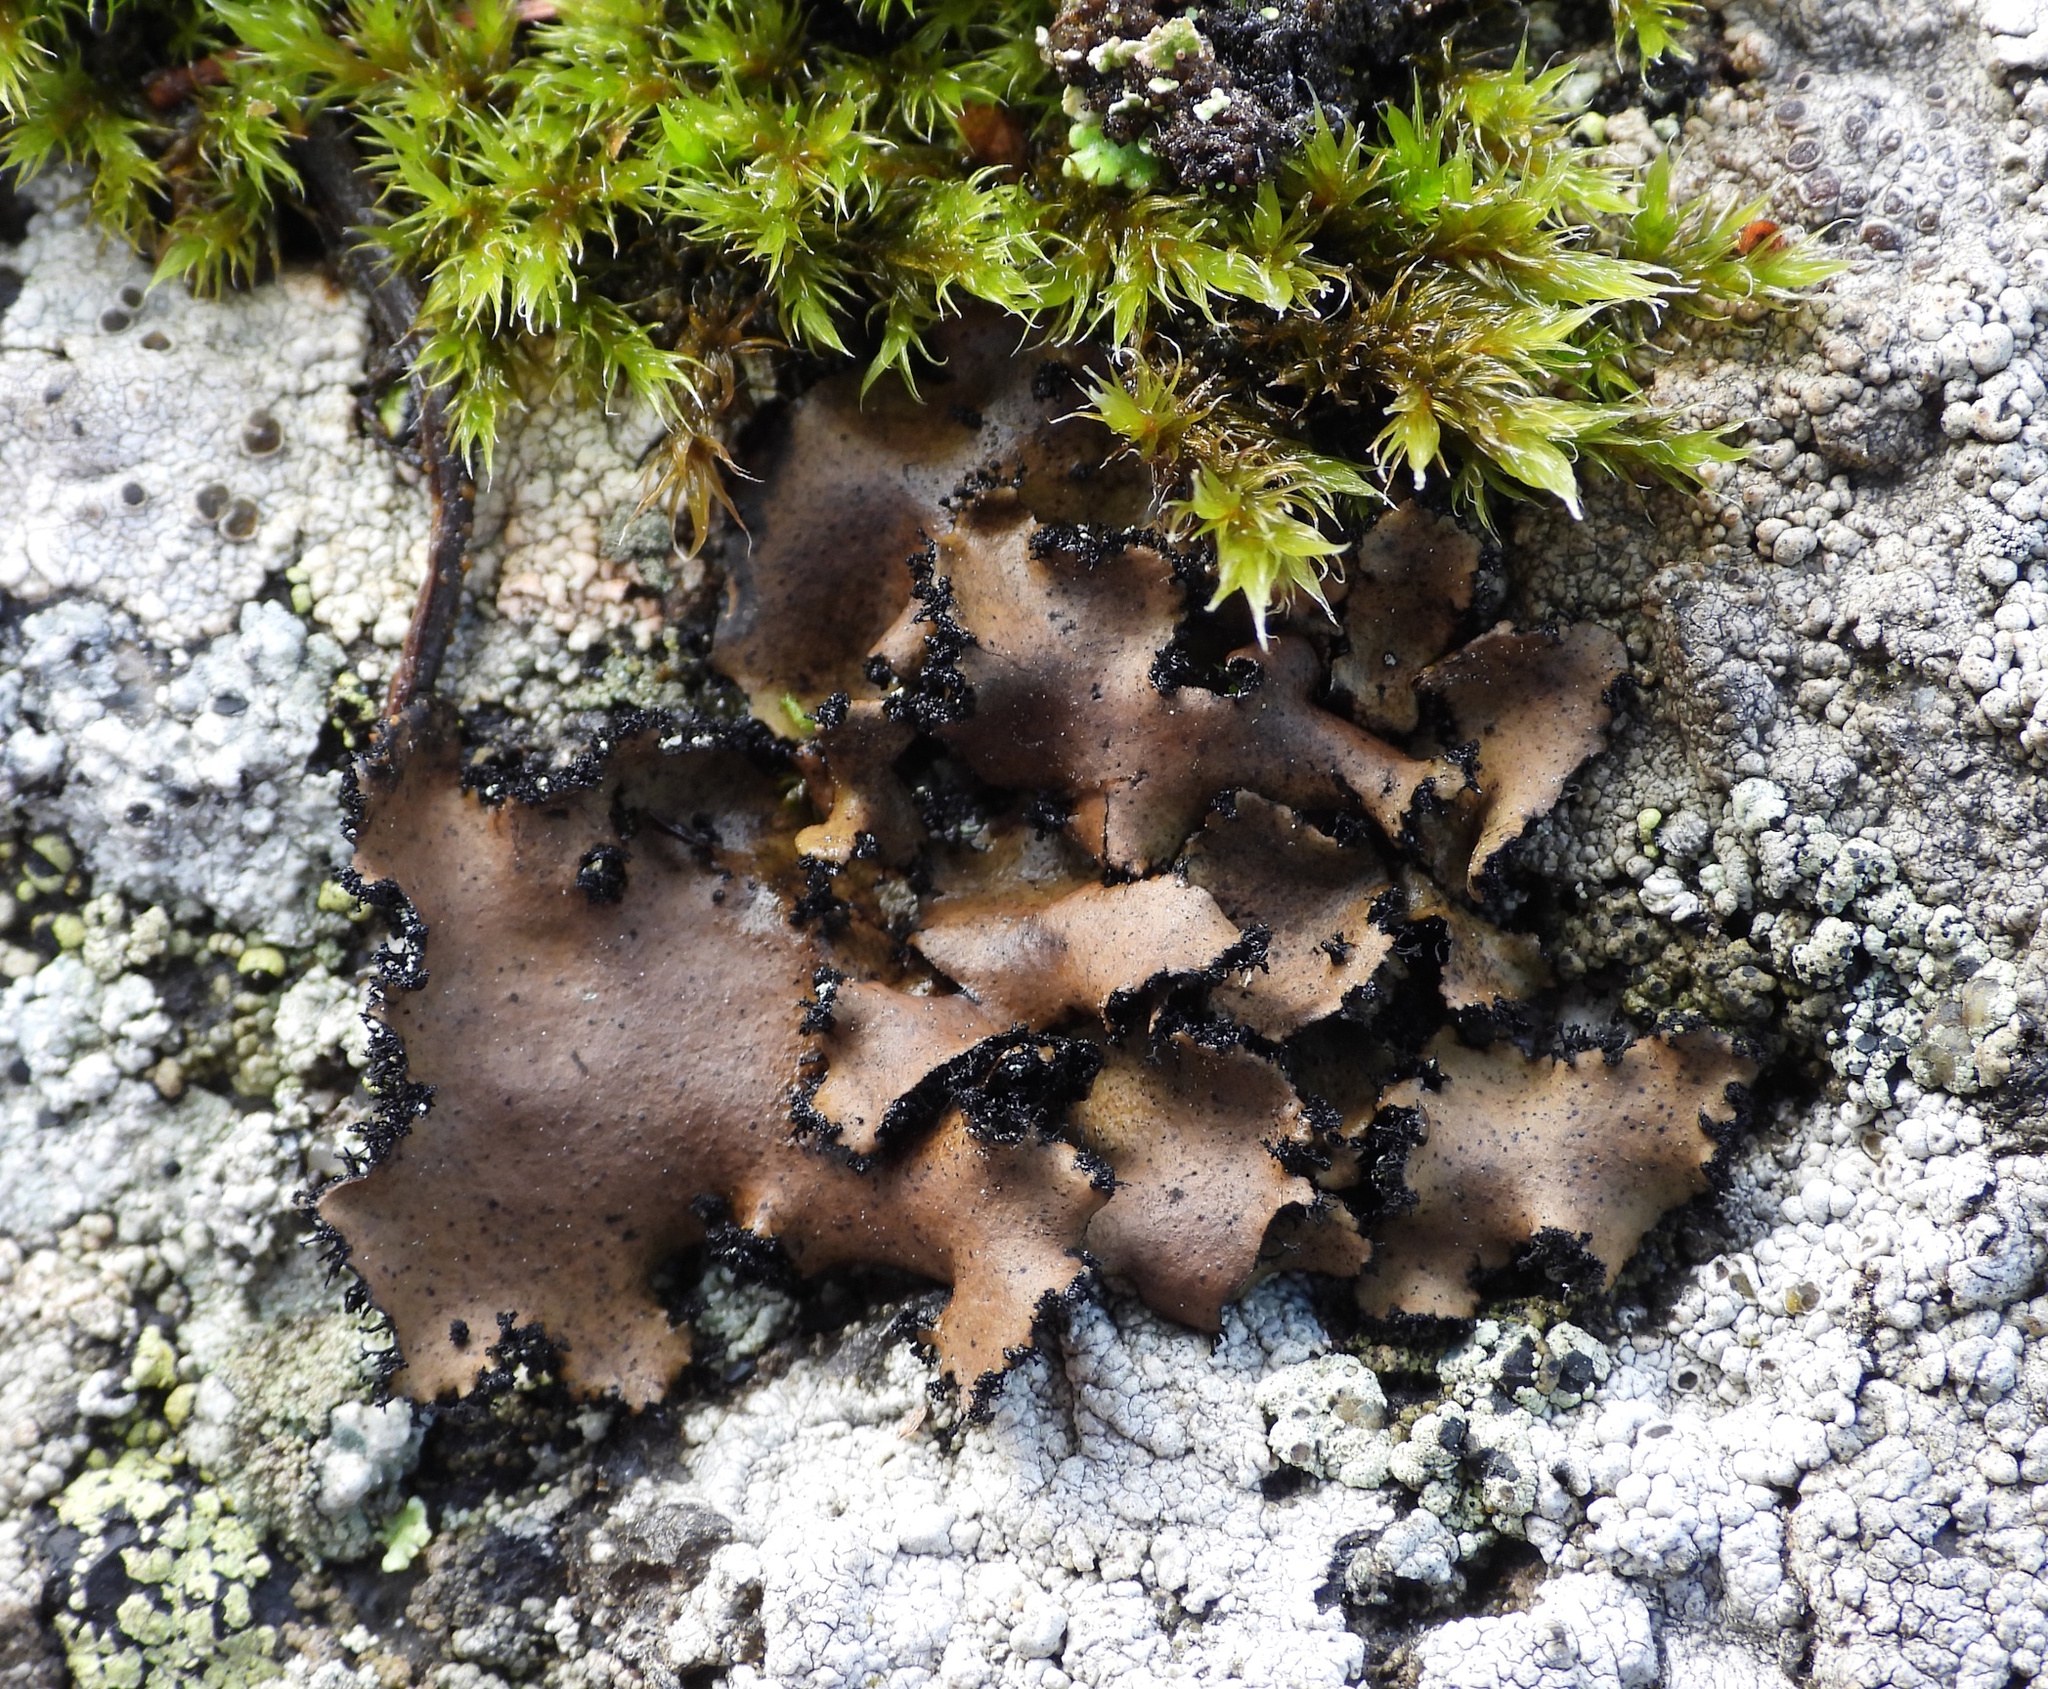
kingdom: Fungi
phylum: Ascomycota
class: Lecanoromycetes
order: Umbilicariales
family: Umbilicariaceae
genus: Umbilicaria
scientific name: Umbilicaria polyrrhiza
